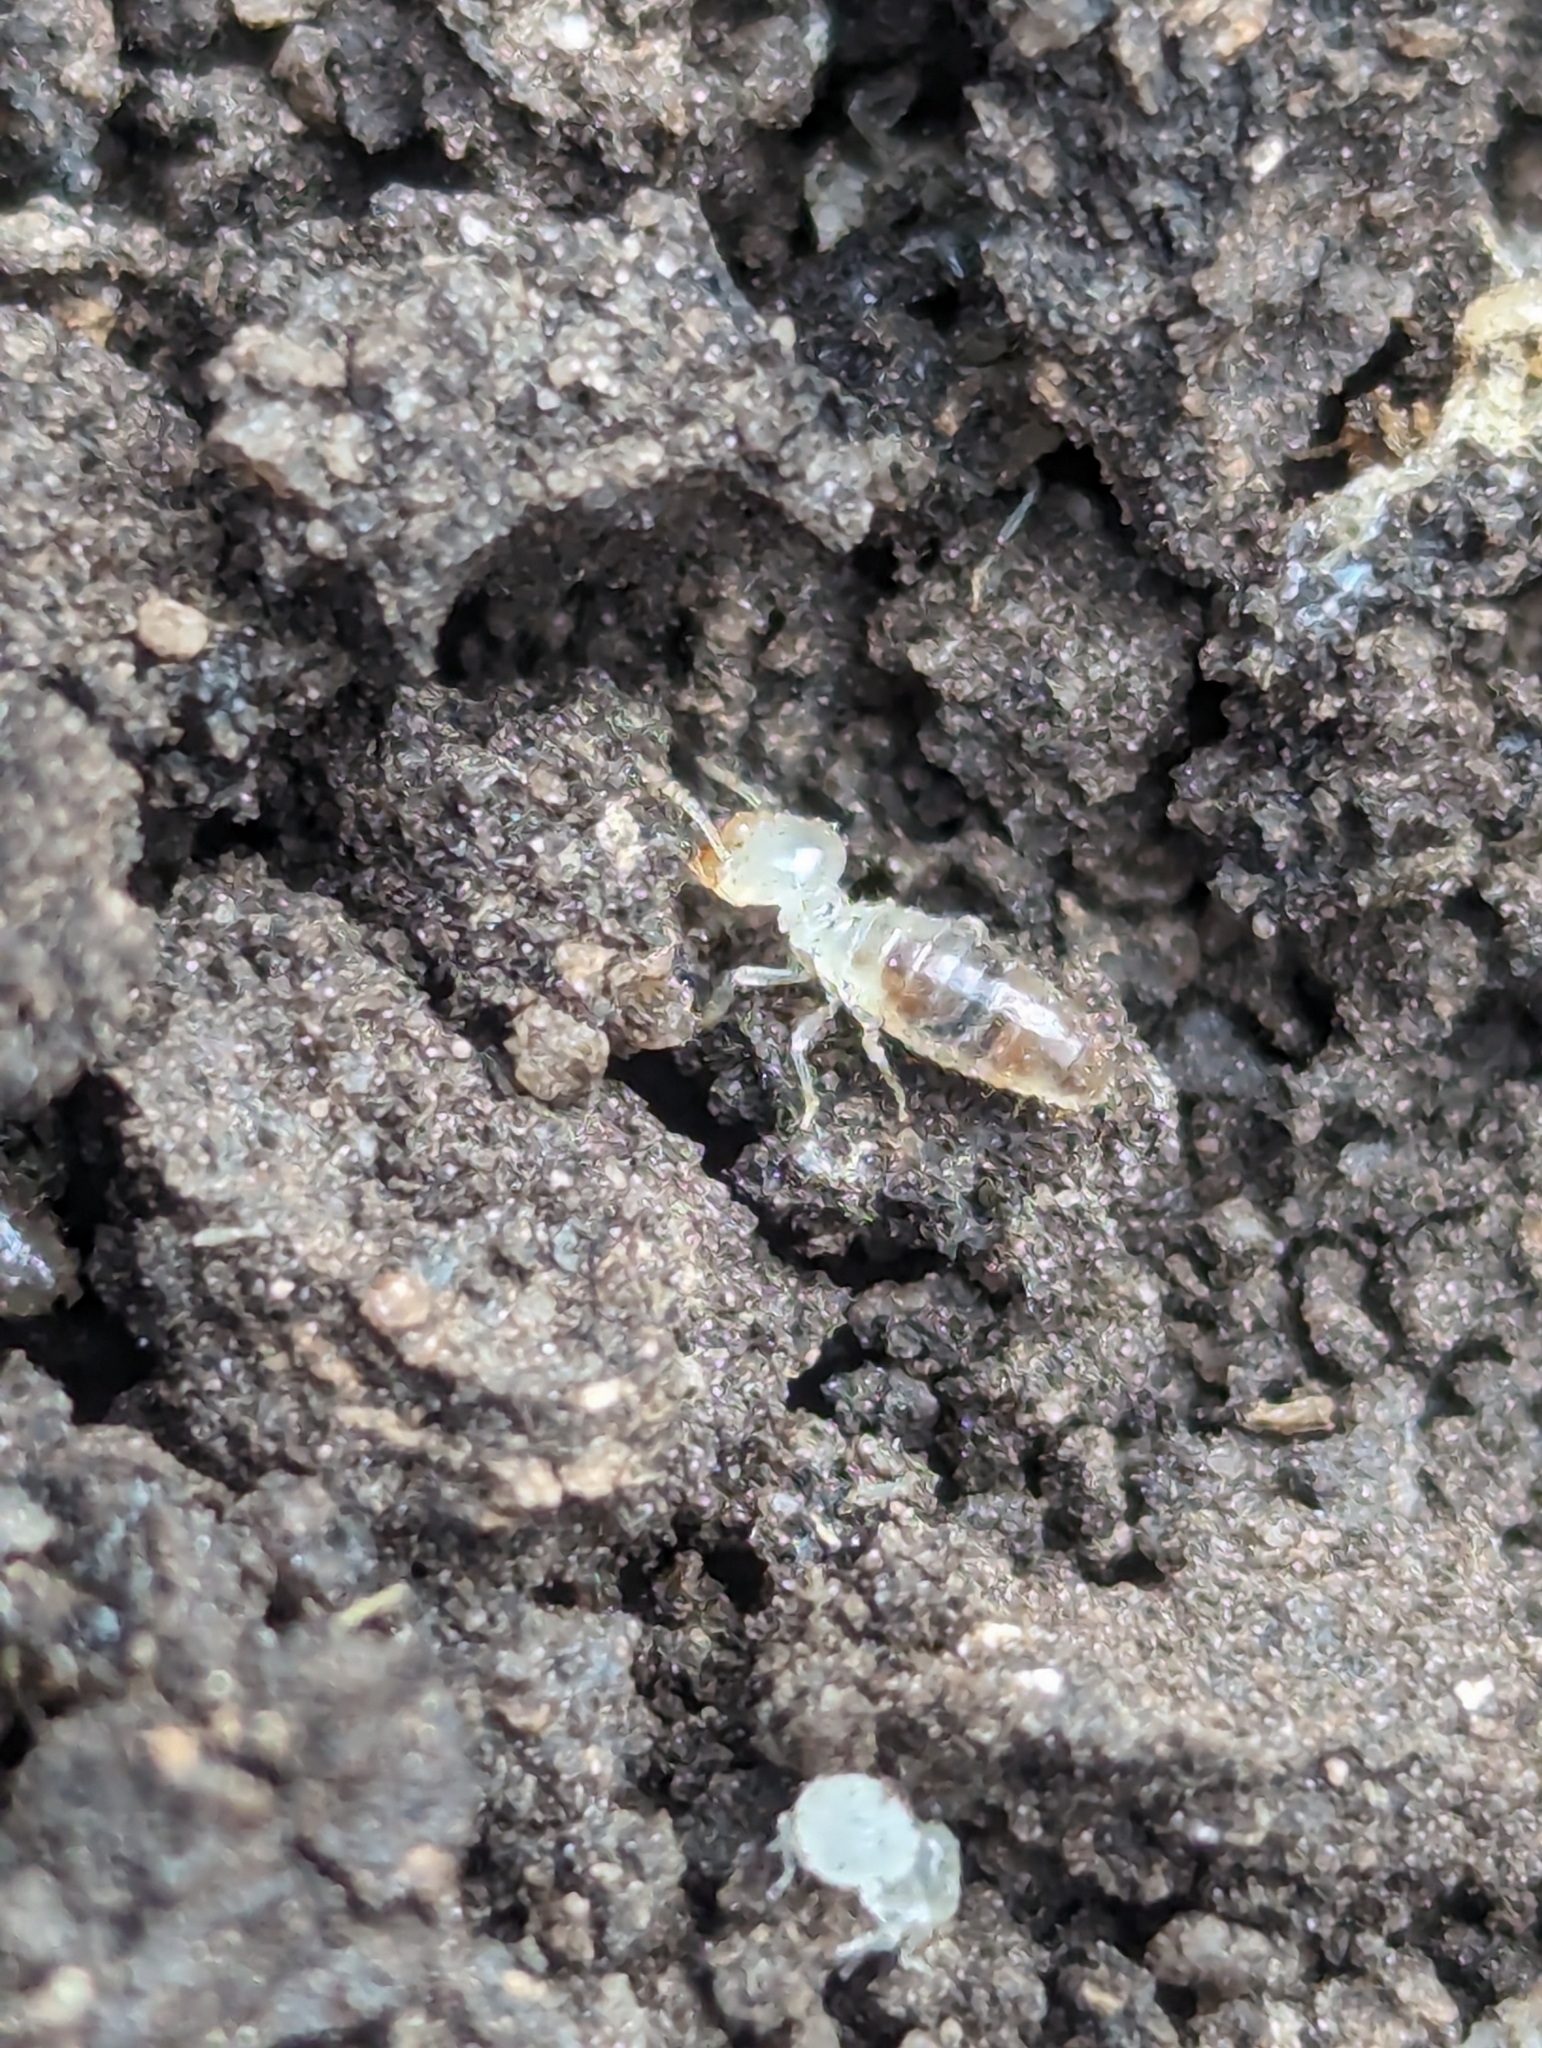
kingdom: Animalia
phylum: Arthropoda
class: Insecta
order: Blattodea
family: Termitidae
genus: Amitermes
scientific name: Amitermes hastatus
